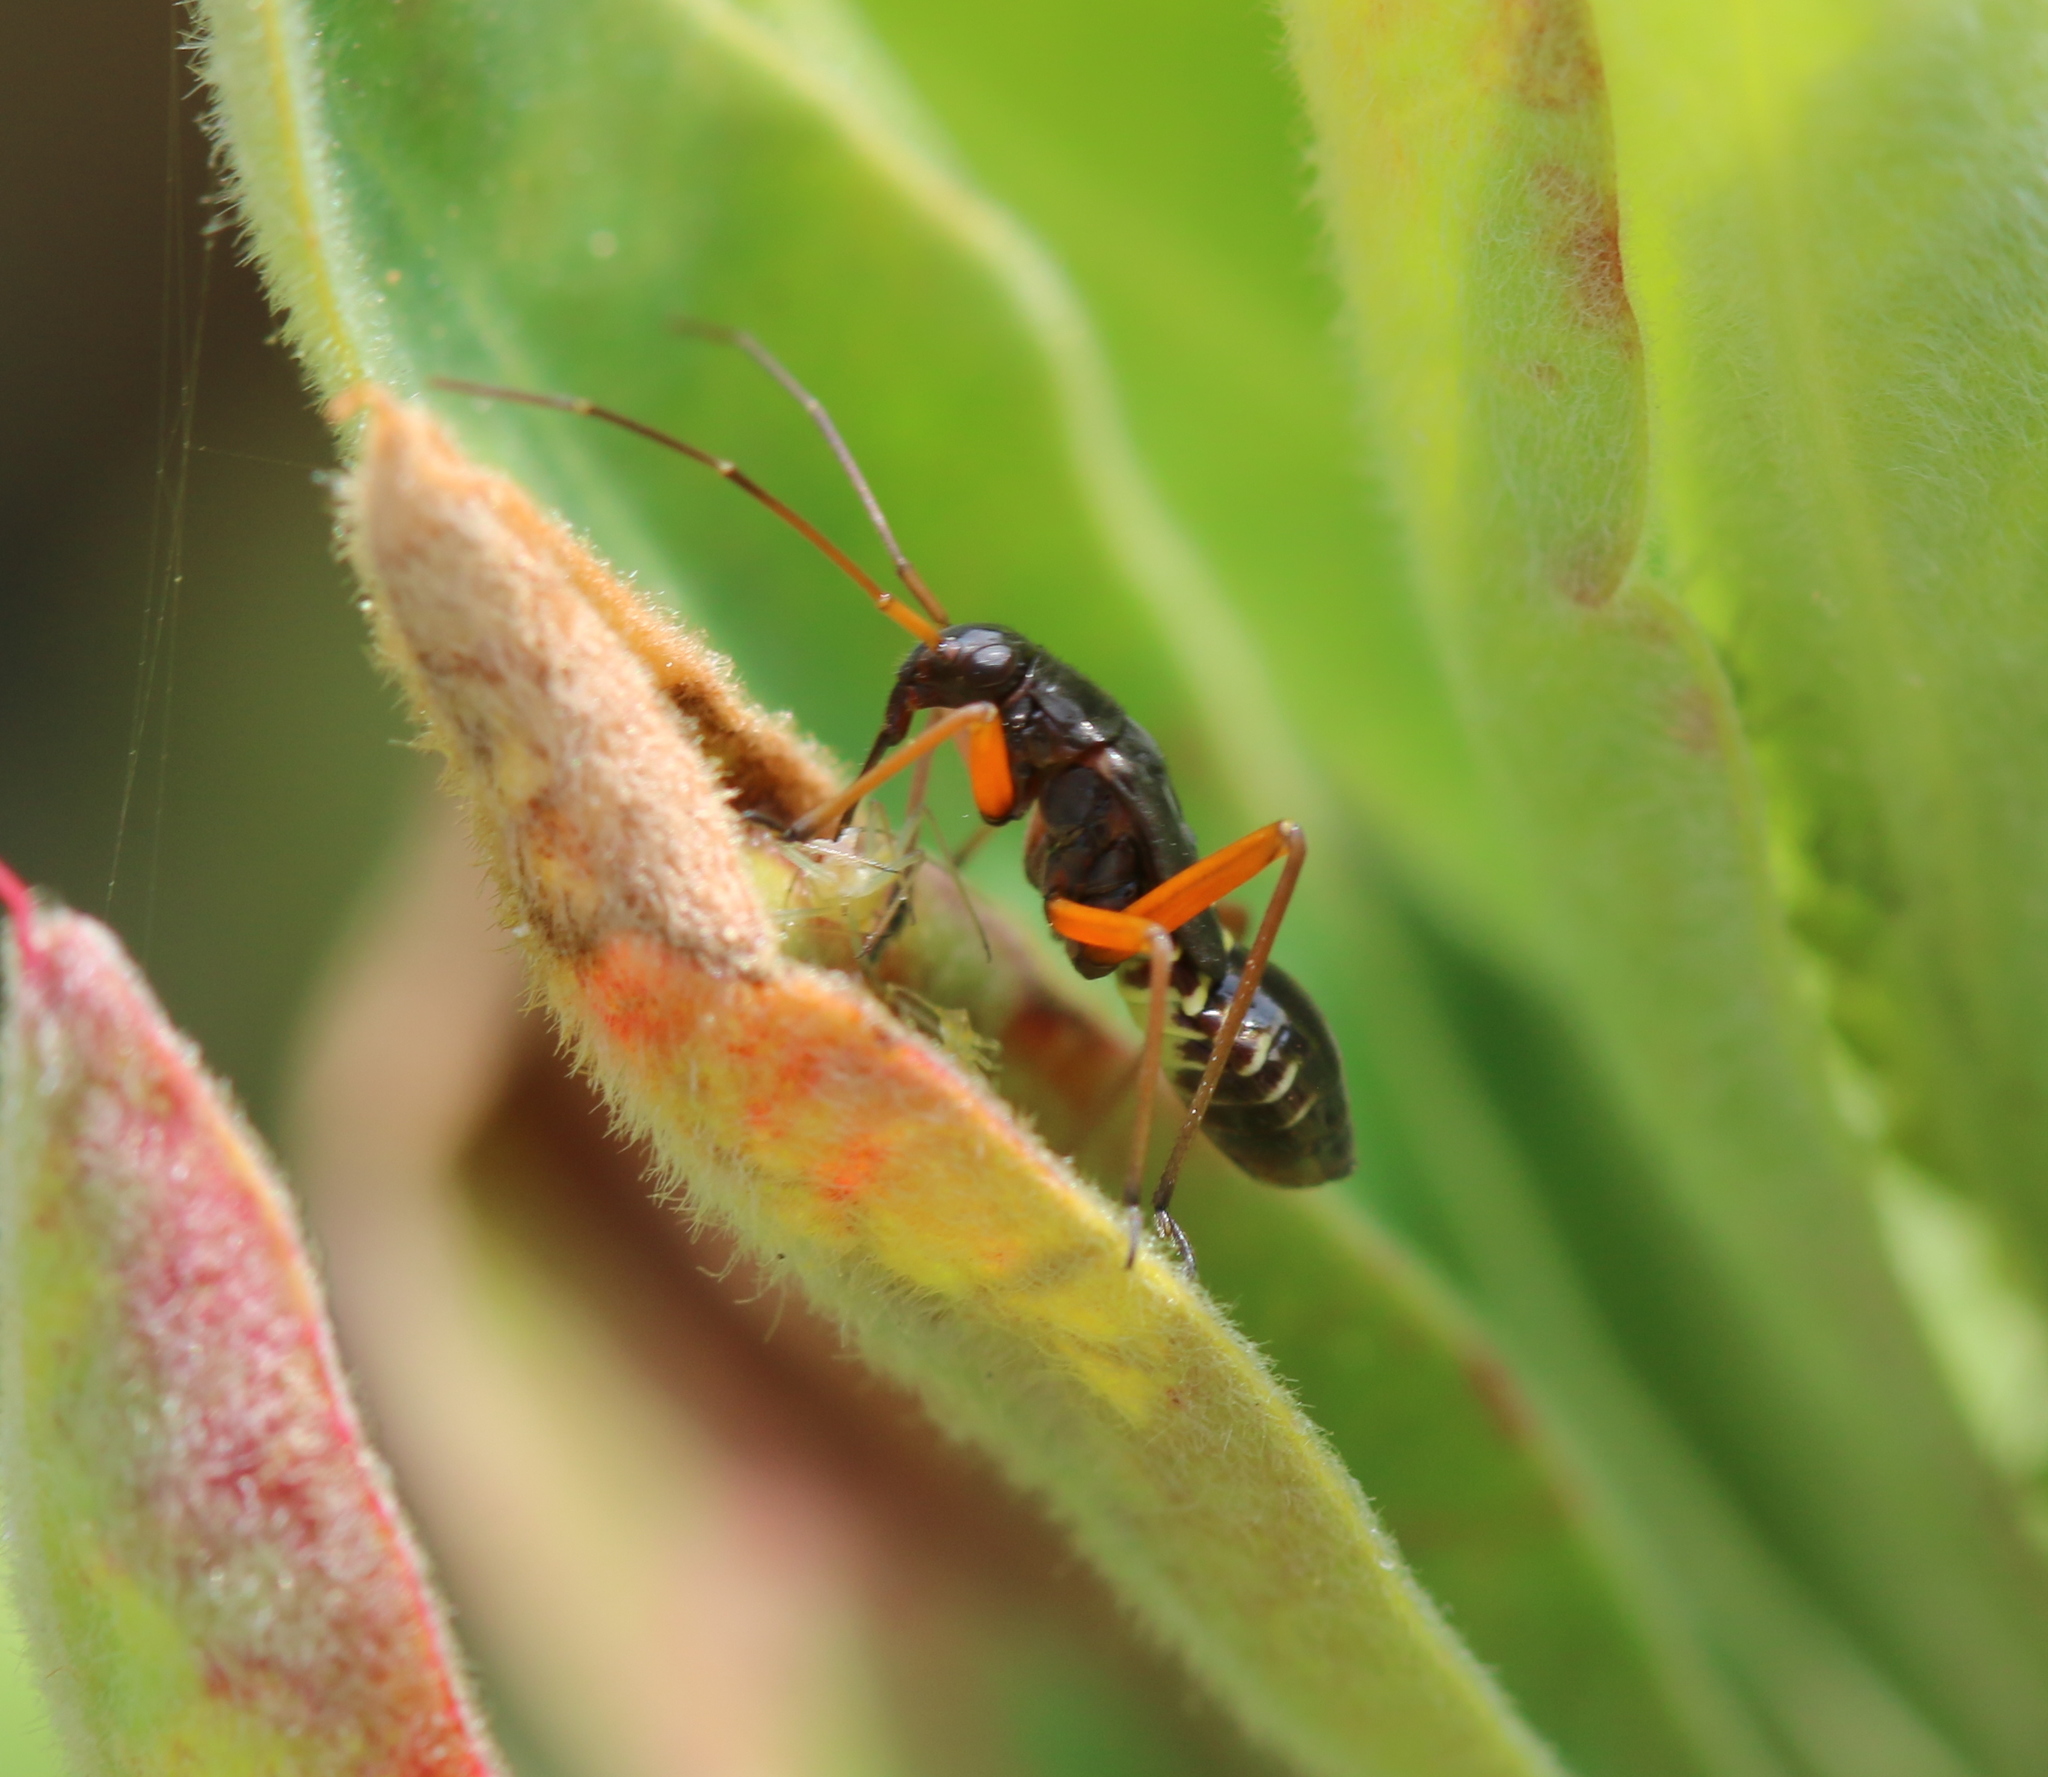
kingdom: Animalia
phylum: Arthropoda
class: Insecta
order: Hemiptera
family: Miridae
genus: Miris
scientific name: Miris striatus
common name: Fine streaked bugkin
